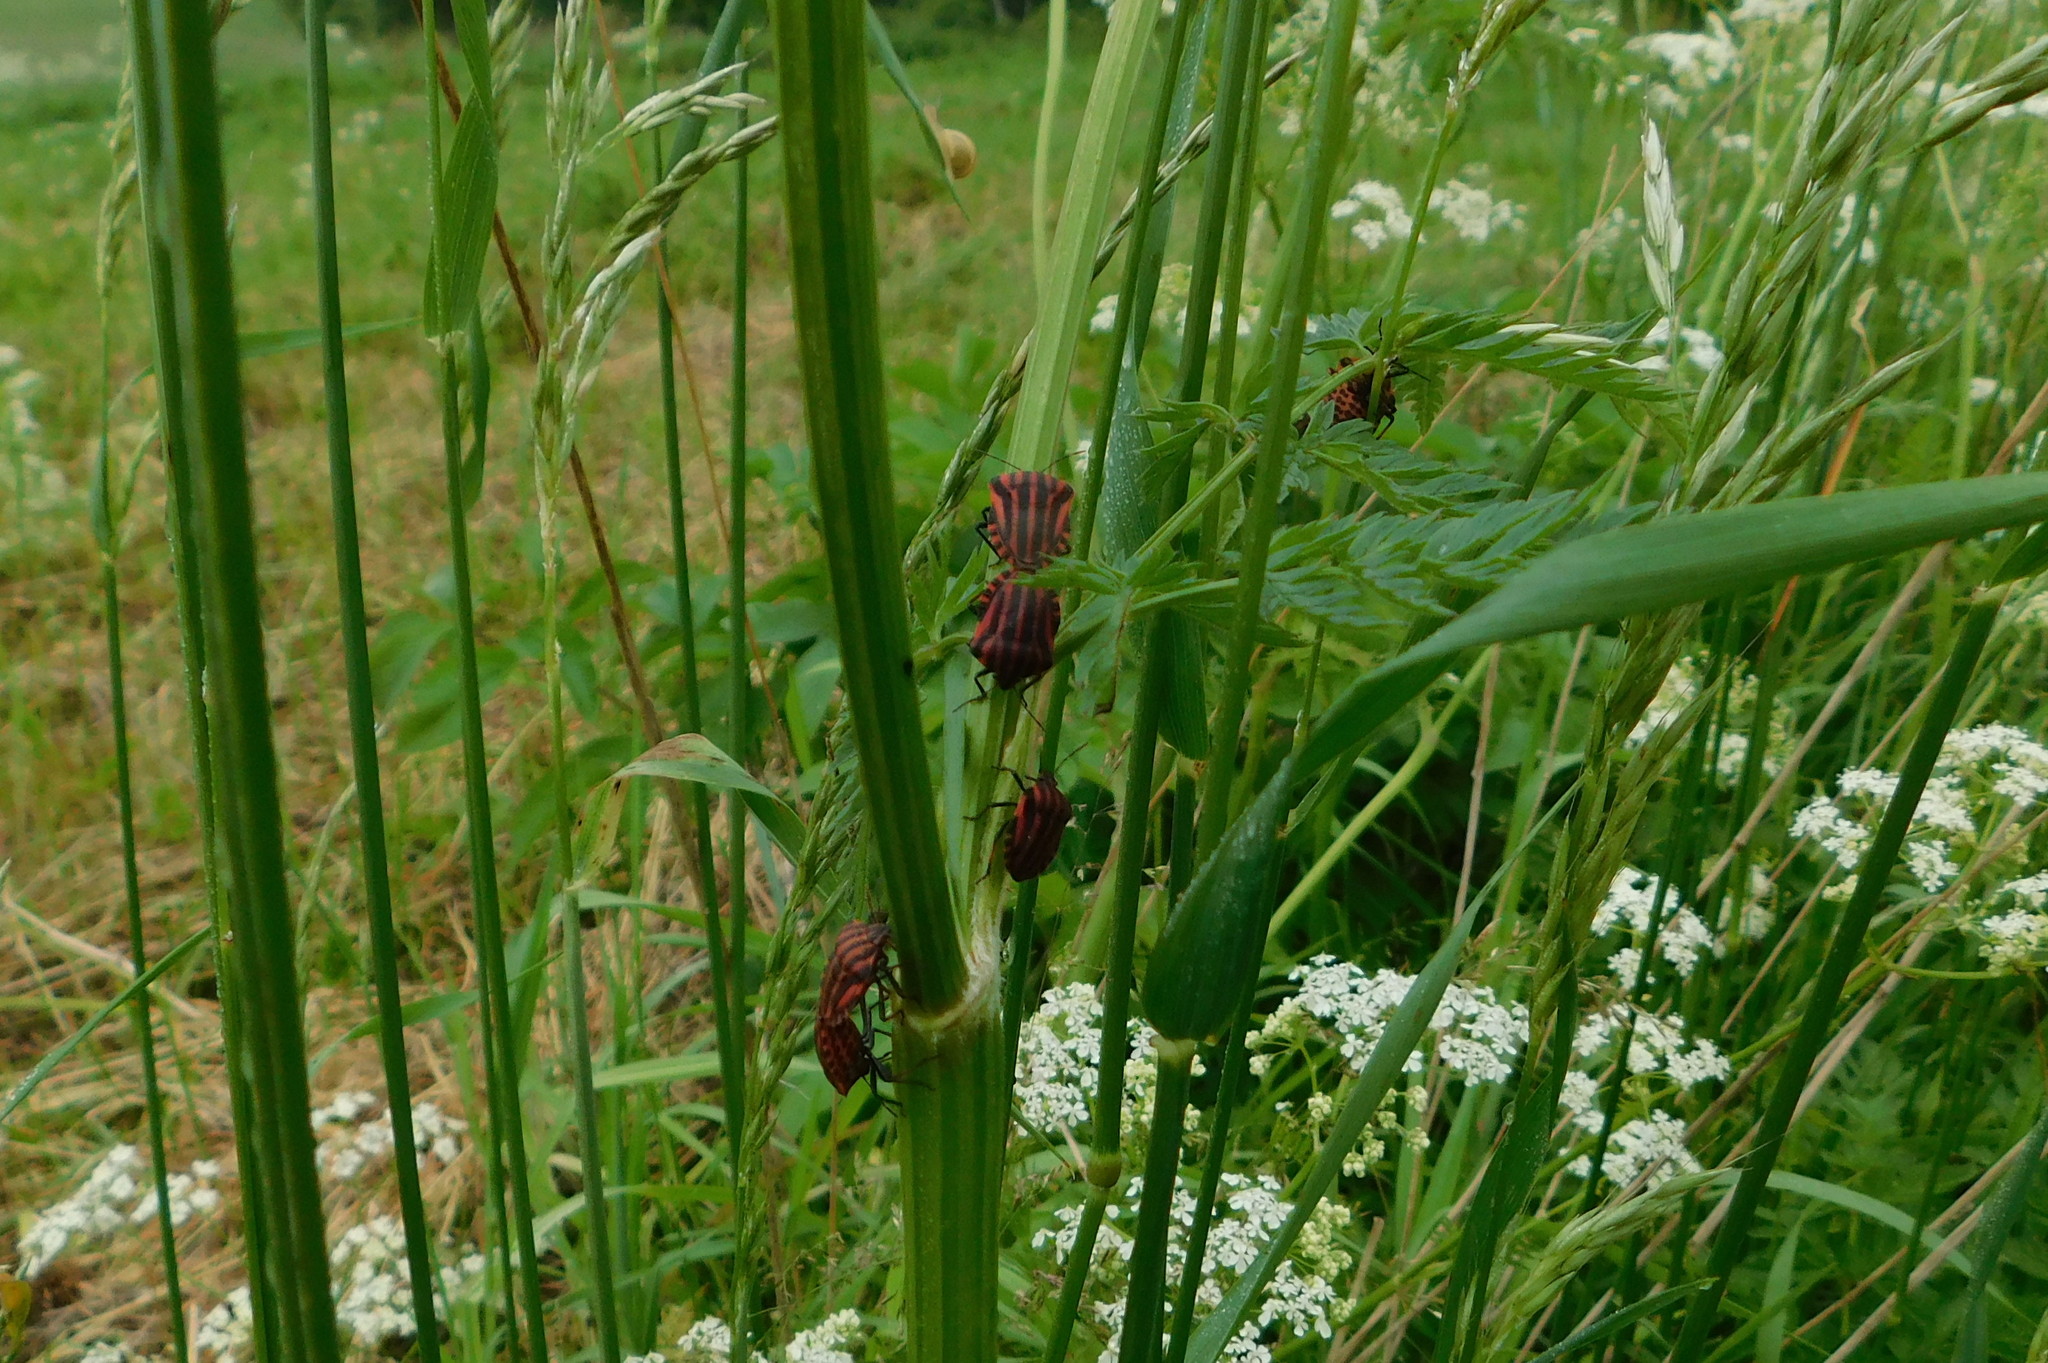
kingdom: Animalia
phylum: Arthropoda
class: Insecta
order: Hemiptera
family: Pentatomidae
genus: Graphosoma
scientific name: Graphosoma italicum
